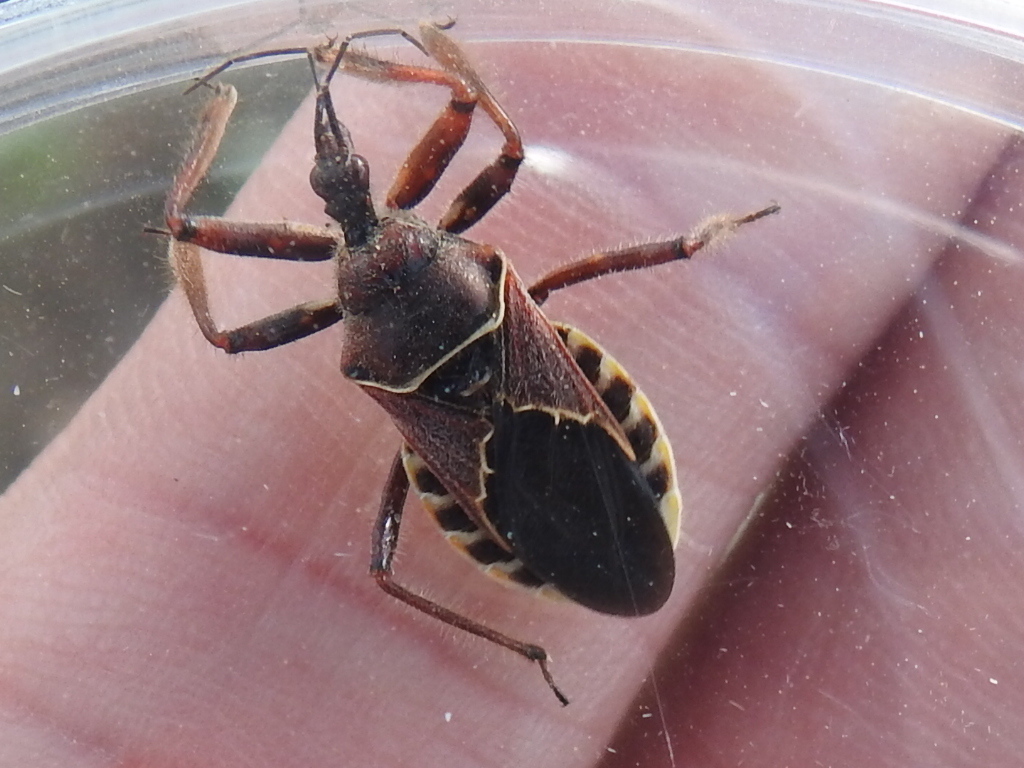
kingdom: Animalia
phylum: Arthropoda
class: Insecta
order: Hemiptera
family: Reduviidae
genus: Apiomerus
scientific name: Apiomerus spissipes
